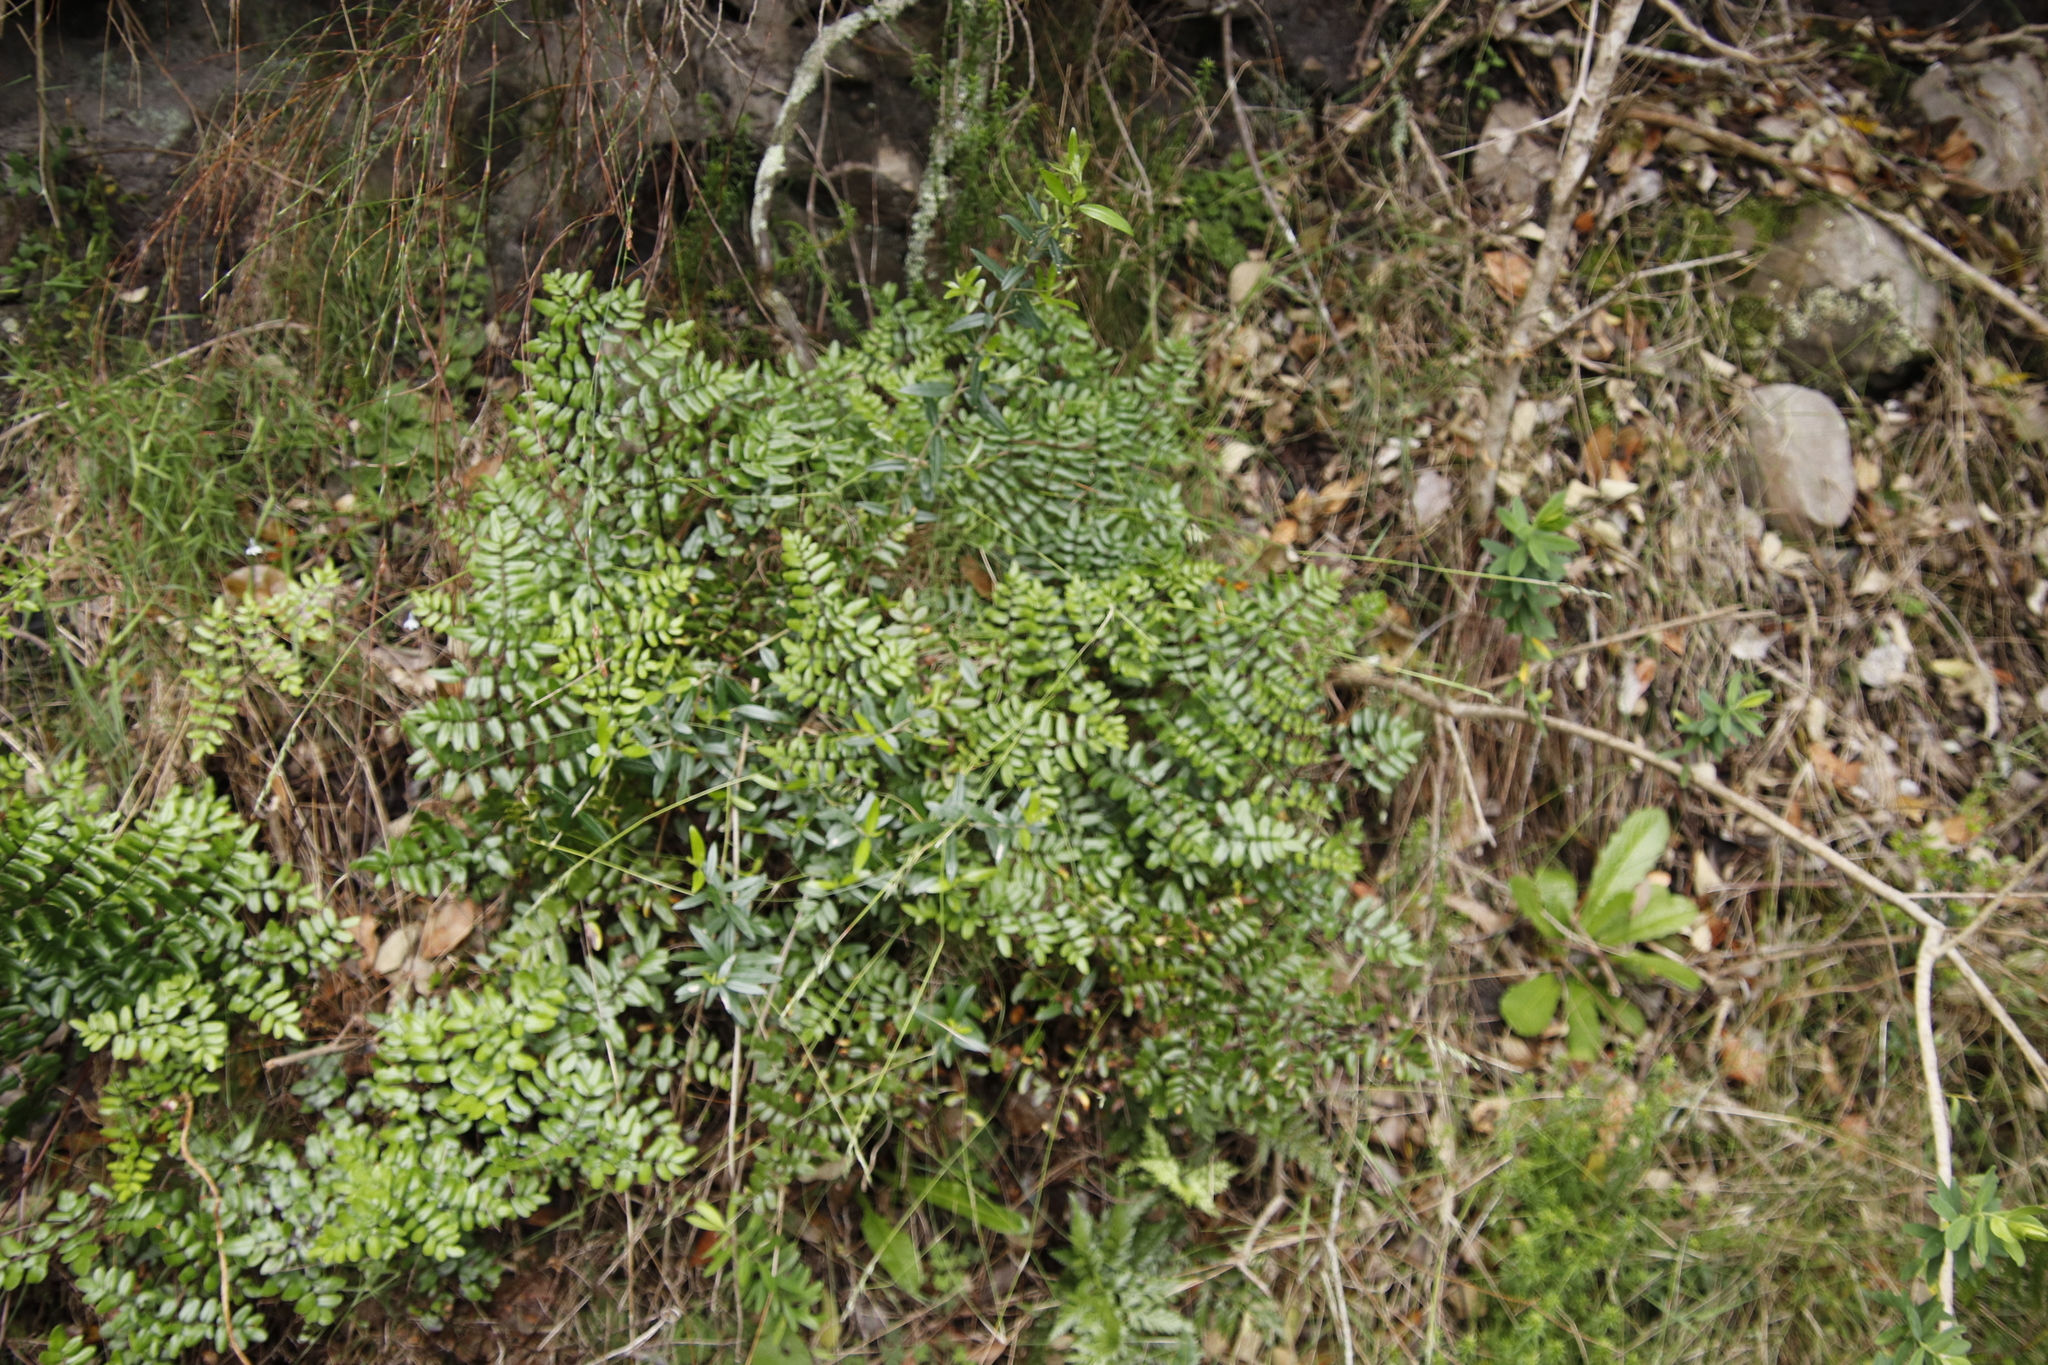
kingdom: Plantae
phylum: Tracheophyta
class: Polypodiopsida
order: Polypodiales
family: Pteridaceae
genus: Pellaea
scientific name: Pellaea pteroides
